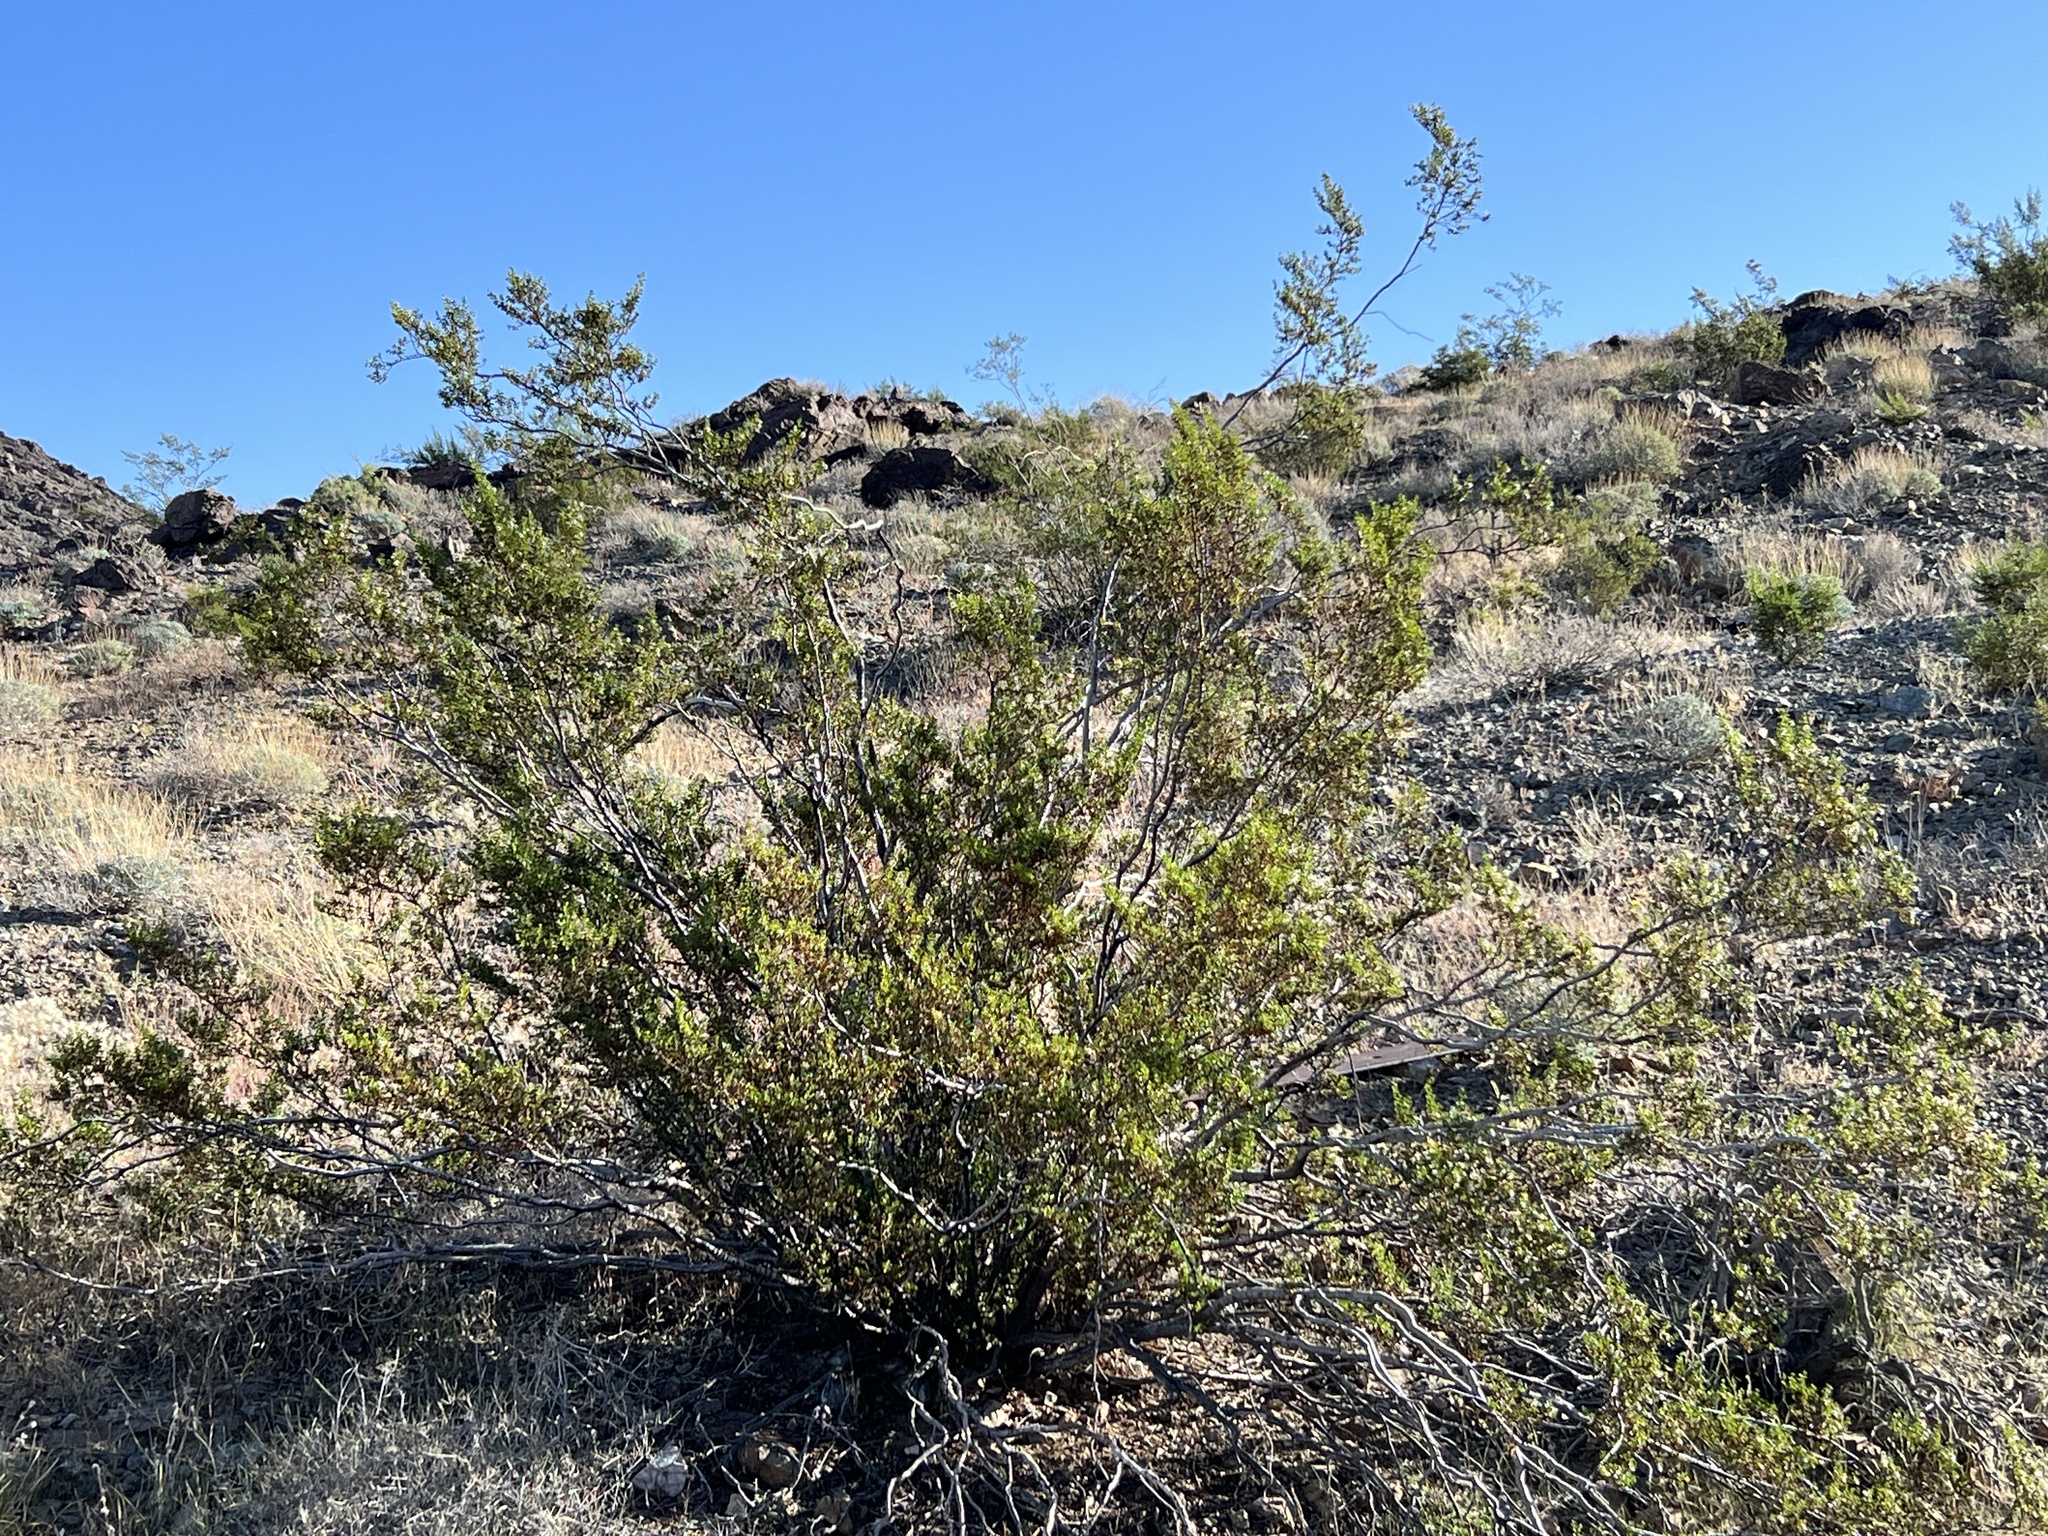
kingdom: Plantae
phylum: Tracheophyta
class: Magnoliopsida
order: Zygophyllales
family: Zygophyllaceae
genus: Larrea
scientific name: Larrea tridentata
